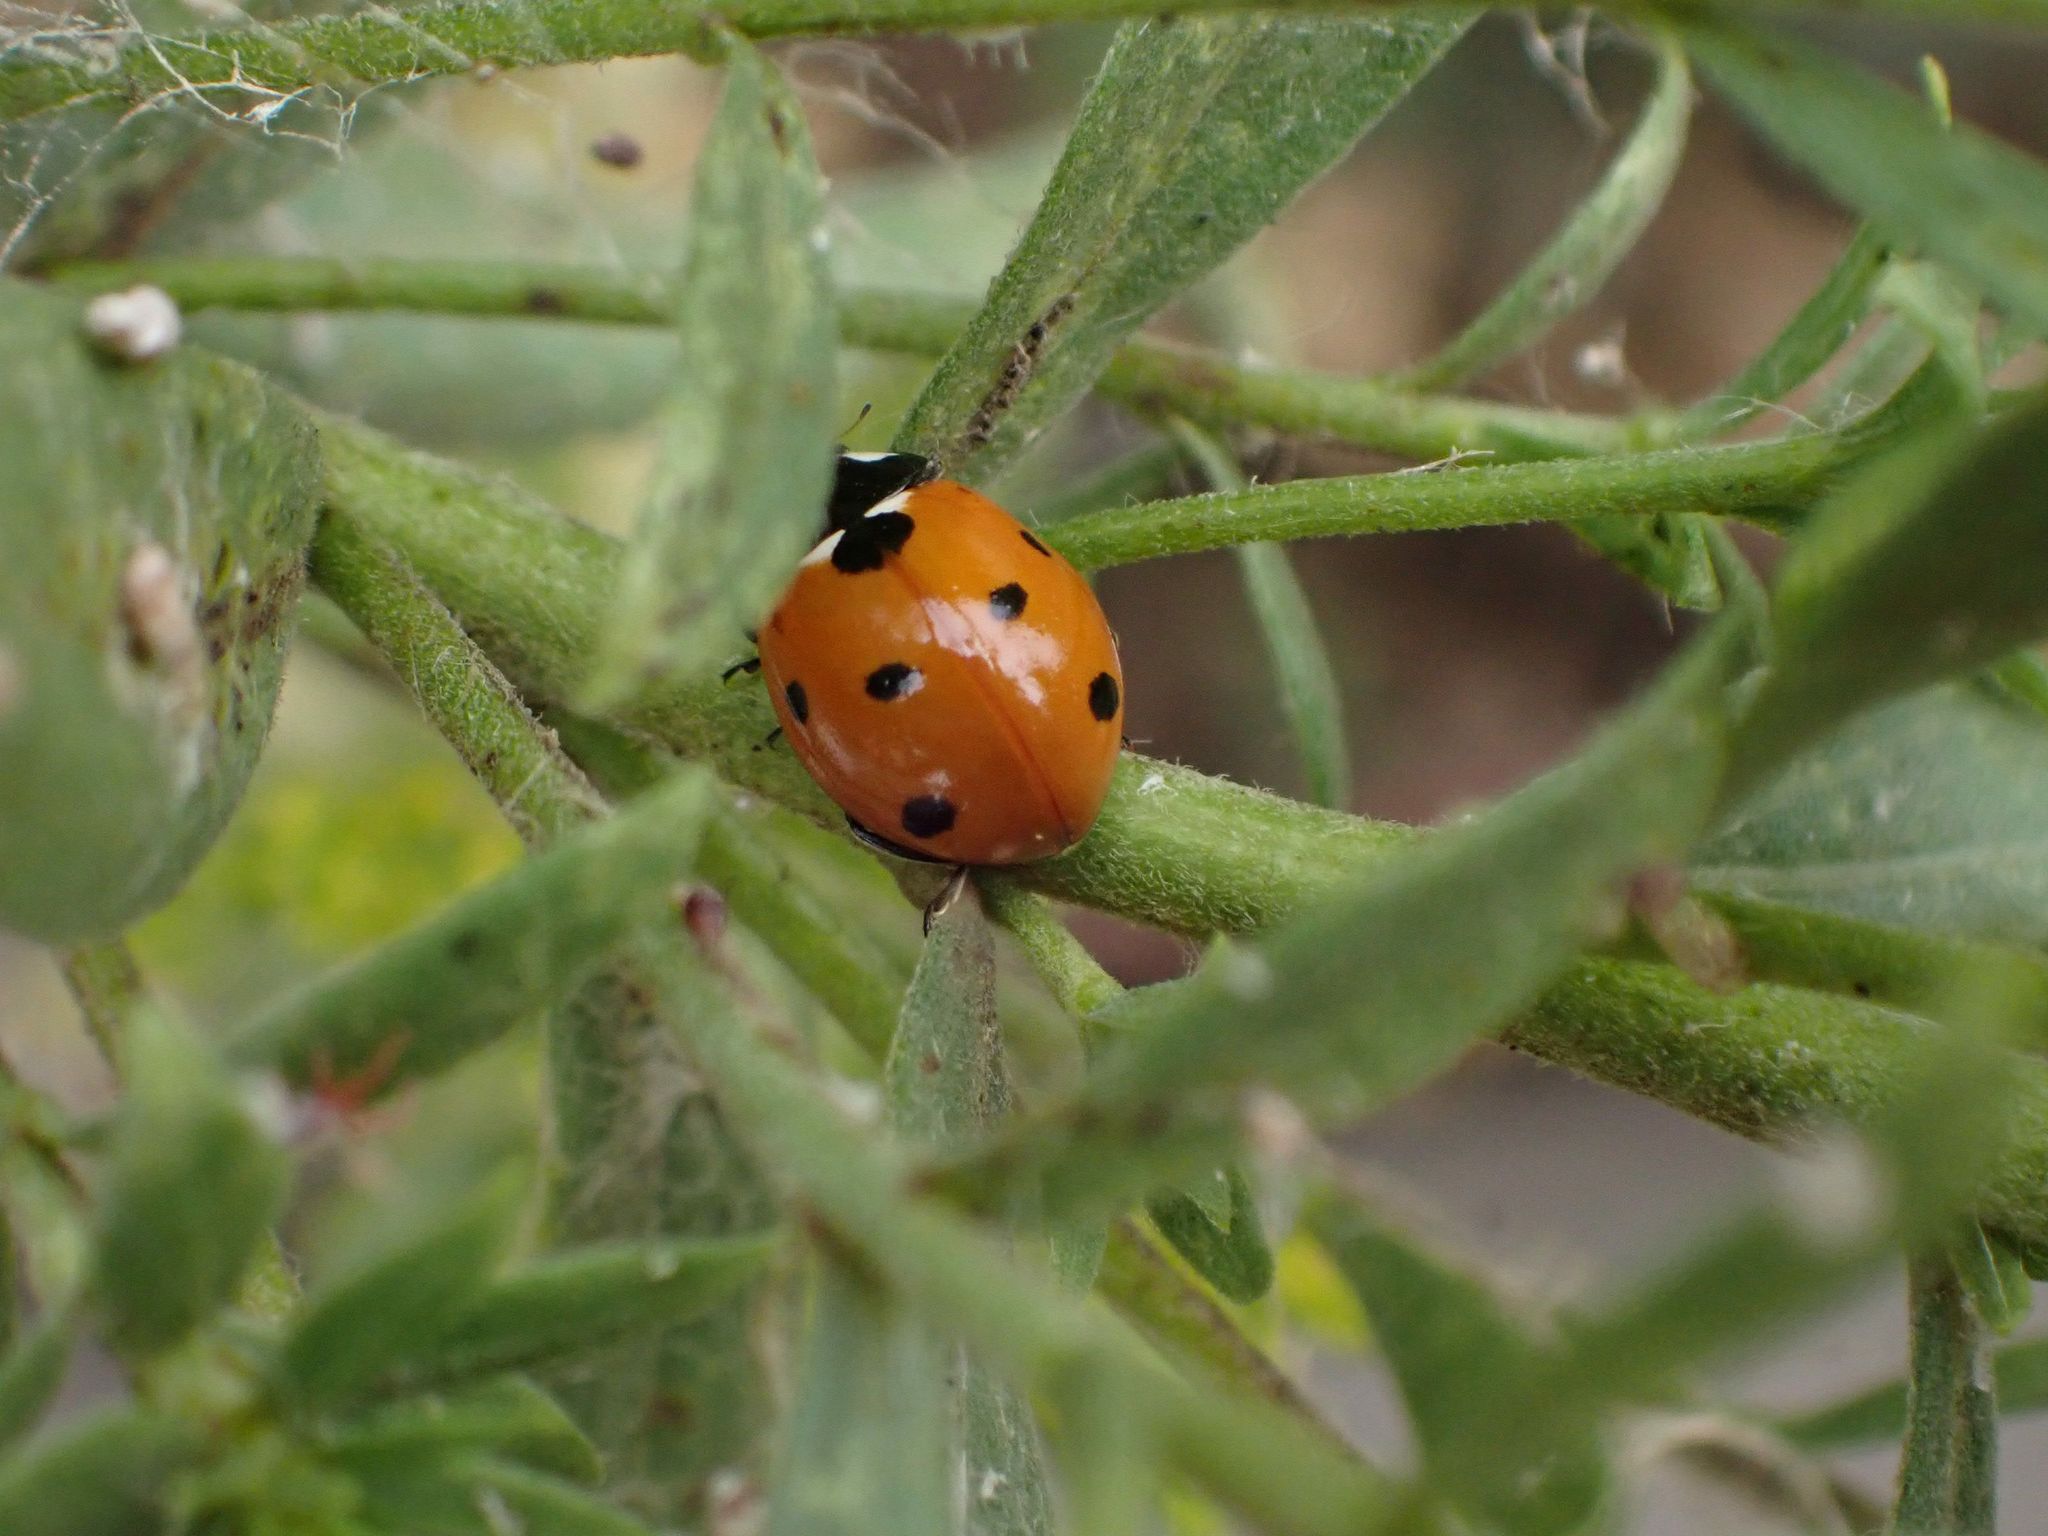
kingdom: Animalia
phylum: Arthropoda
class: Insecta
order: Coleoptera
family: Coccinellidae
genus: Coccinella
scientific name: Coccinella septempunctata
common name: Sevenspotted lady beetle
